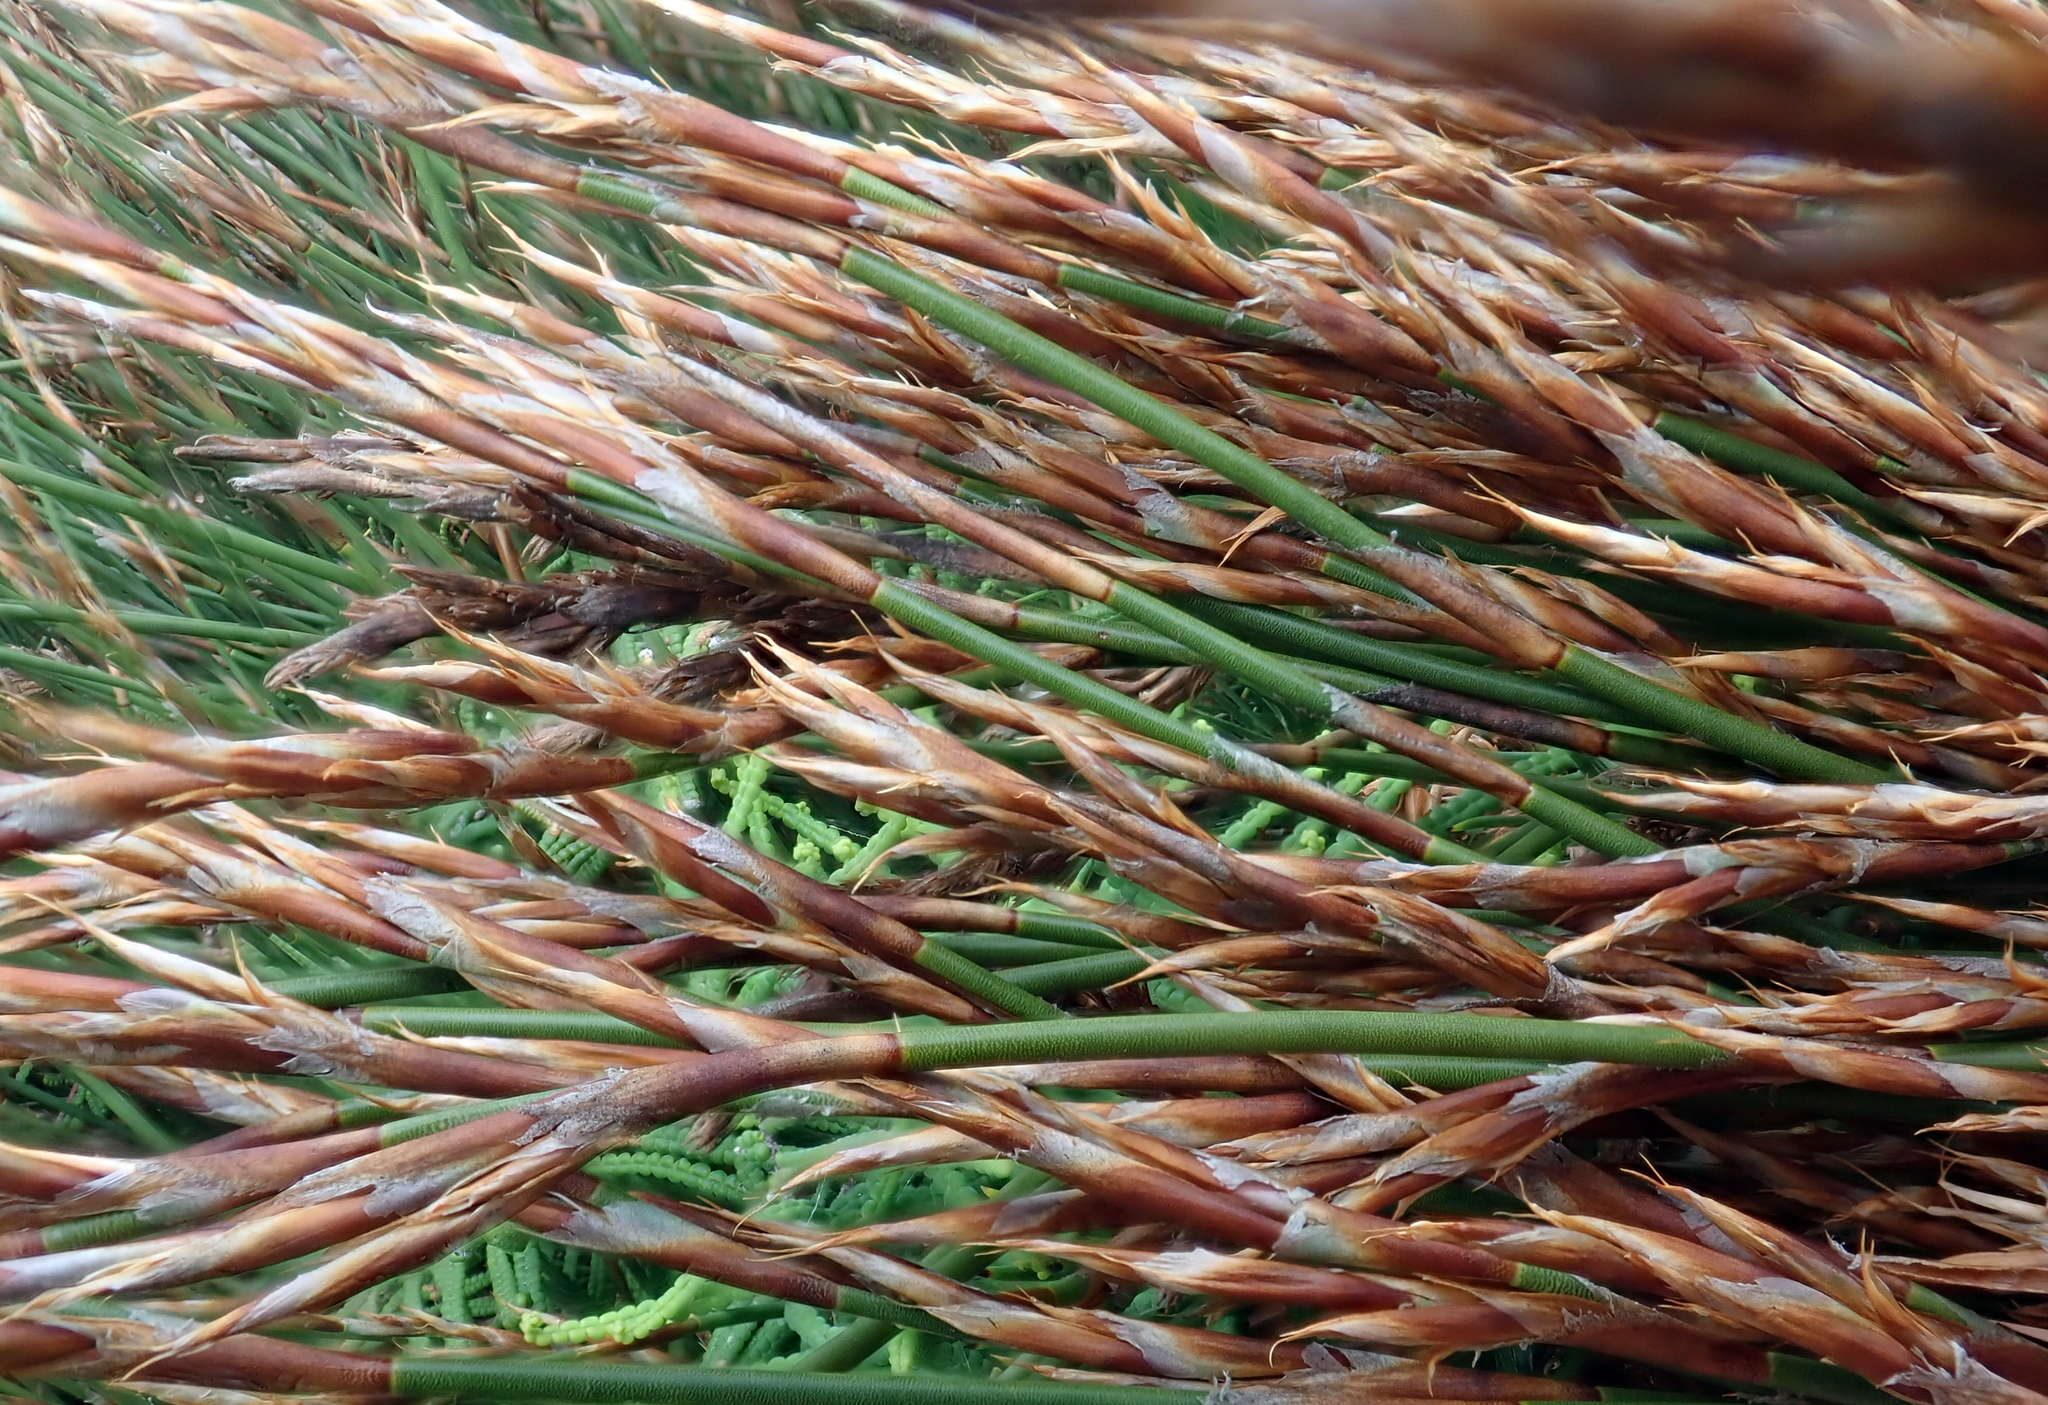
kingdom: Plantae
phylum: Tracheophyta
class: Liliopsida
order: Poales
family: Restionaceae
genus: Sporadanthus
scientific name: Sporadanthus traversii
